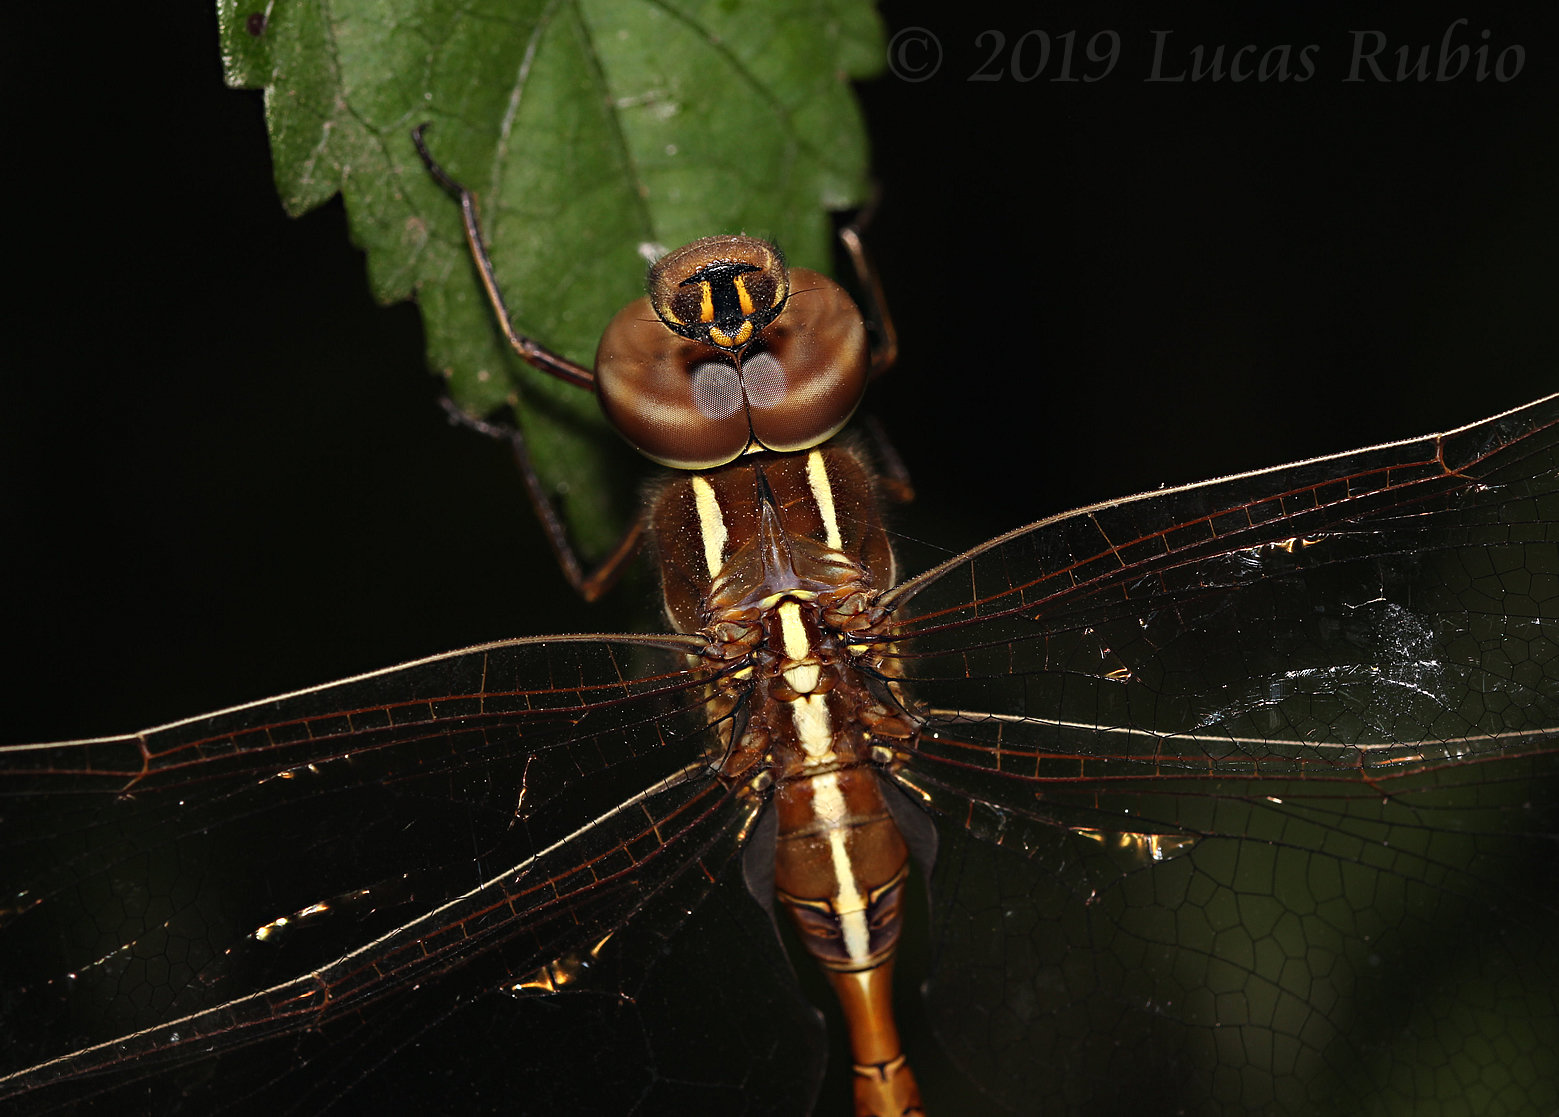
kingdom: Animalia
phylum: Arthropoda
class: Insecta
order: Odonata
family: Aeshnidae
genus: Rhionaeschna
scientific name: Rhionaeschna confusa
